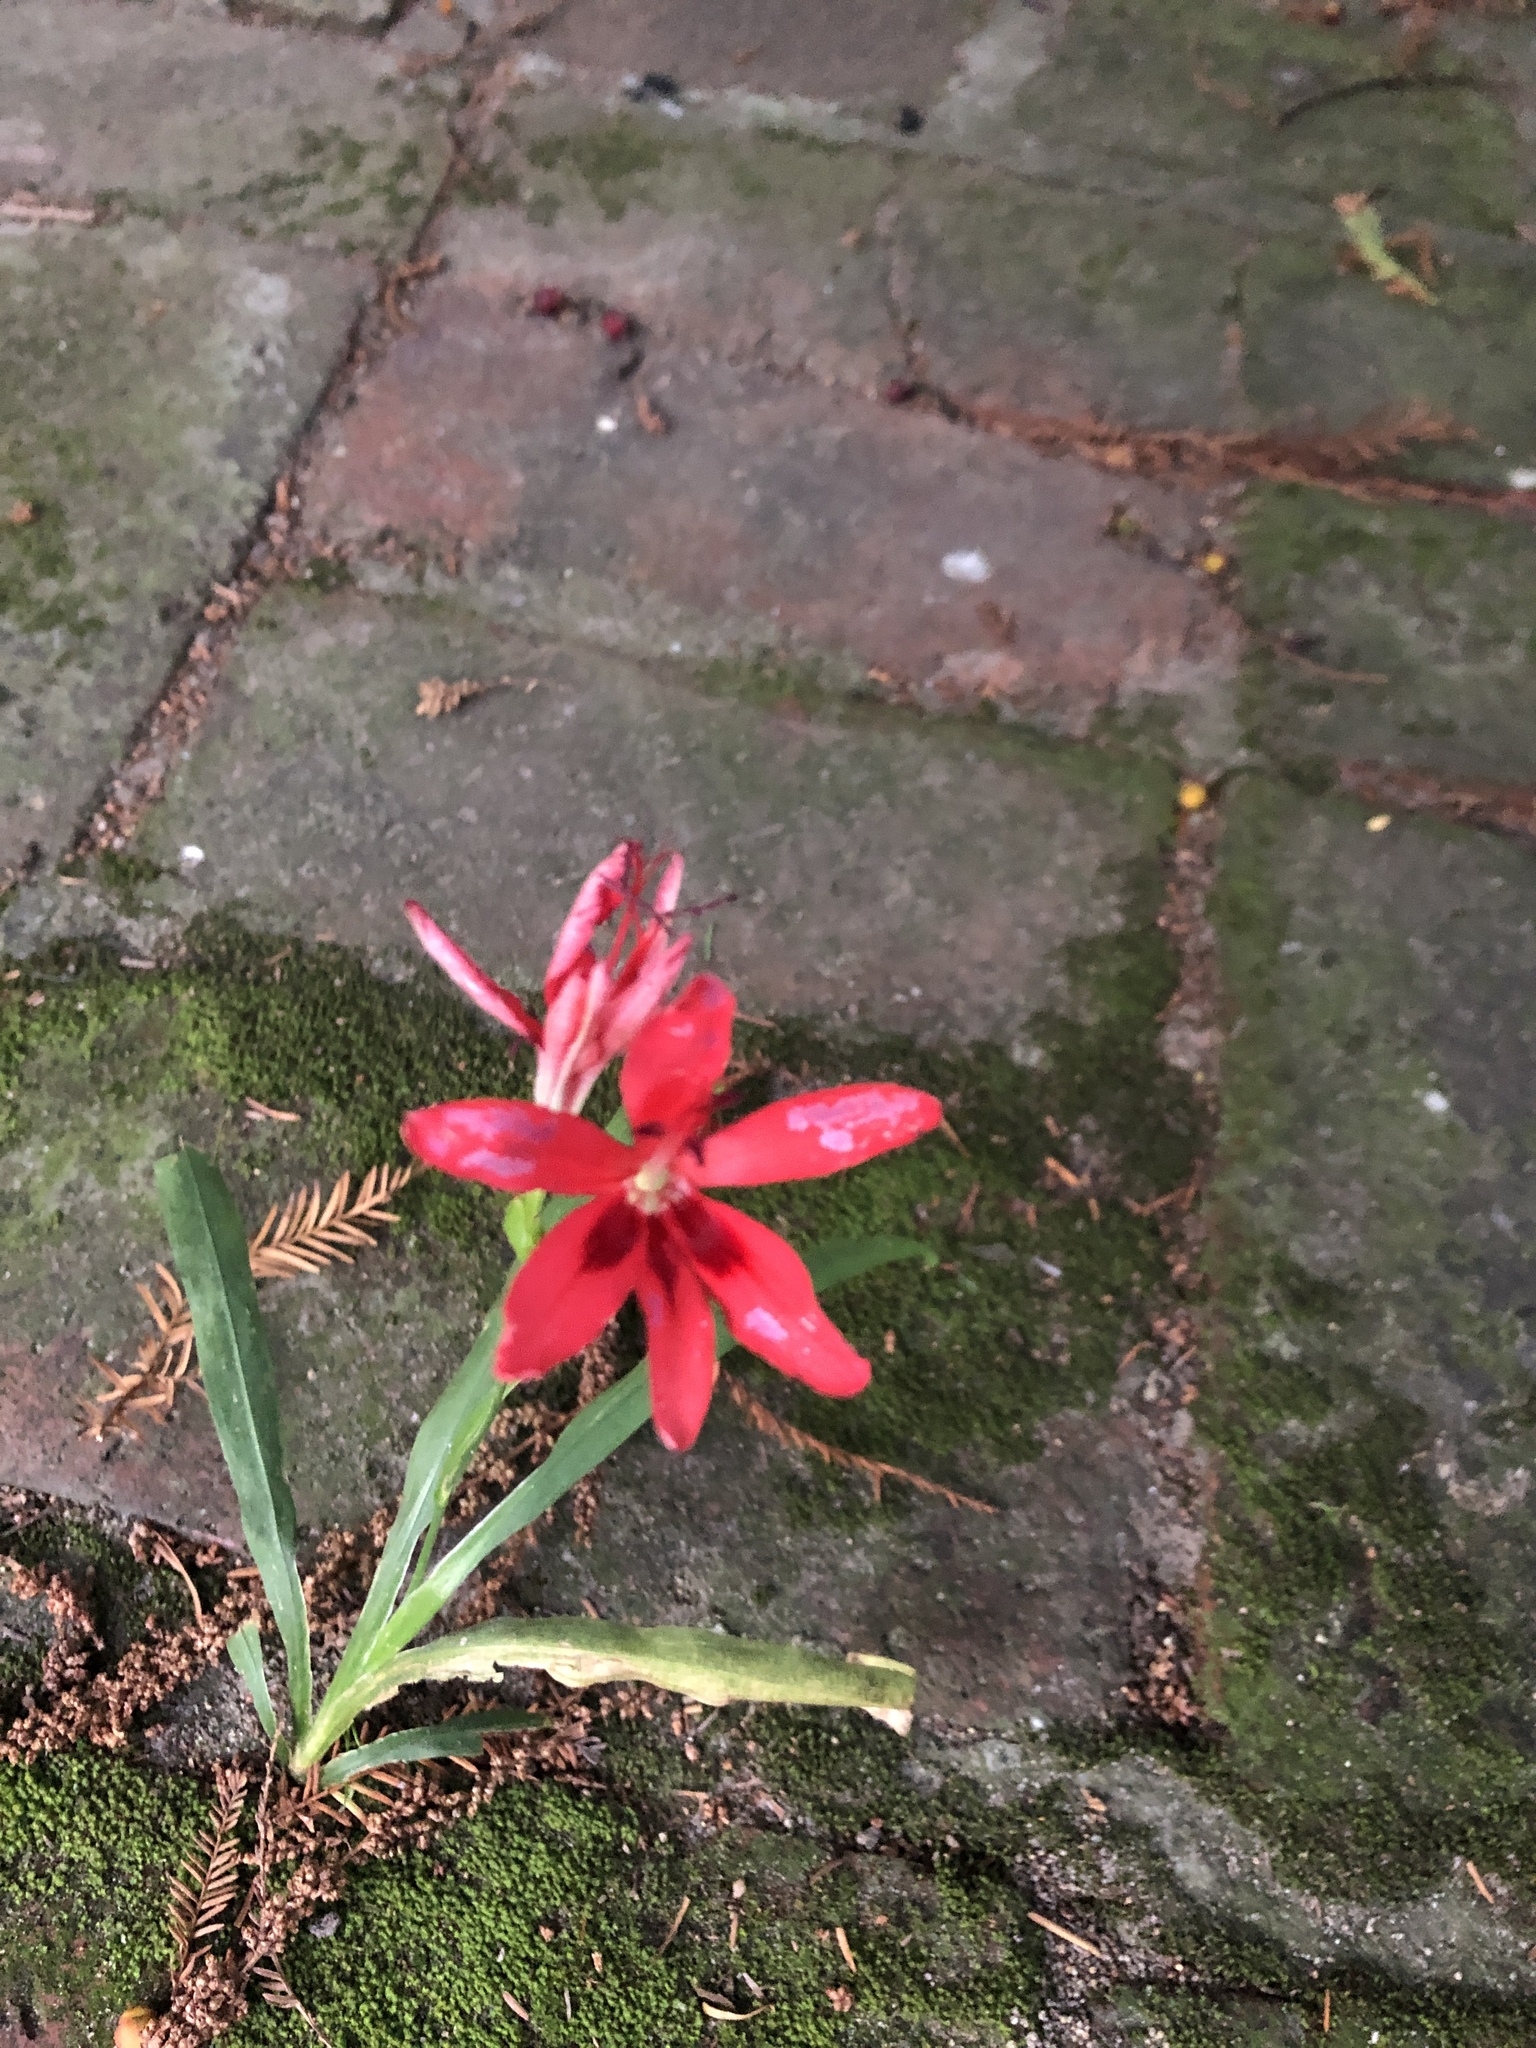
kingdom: Plantae
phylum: Tracheophyta
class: Liliopsida
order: Asparagales
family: Iridaceae
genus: Freesia
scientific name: Freesia grandiflora
